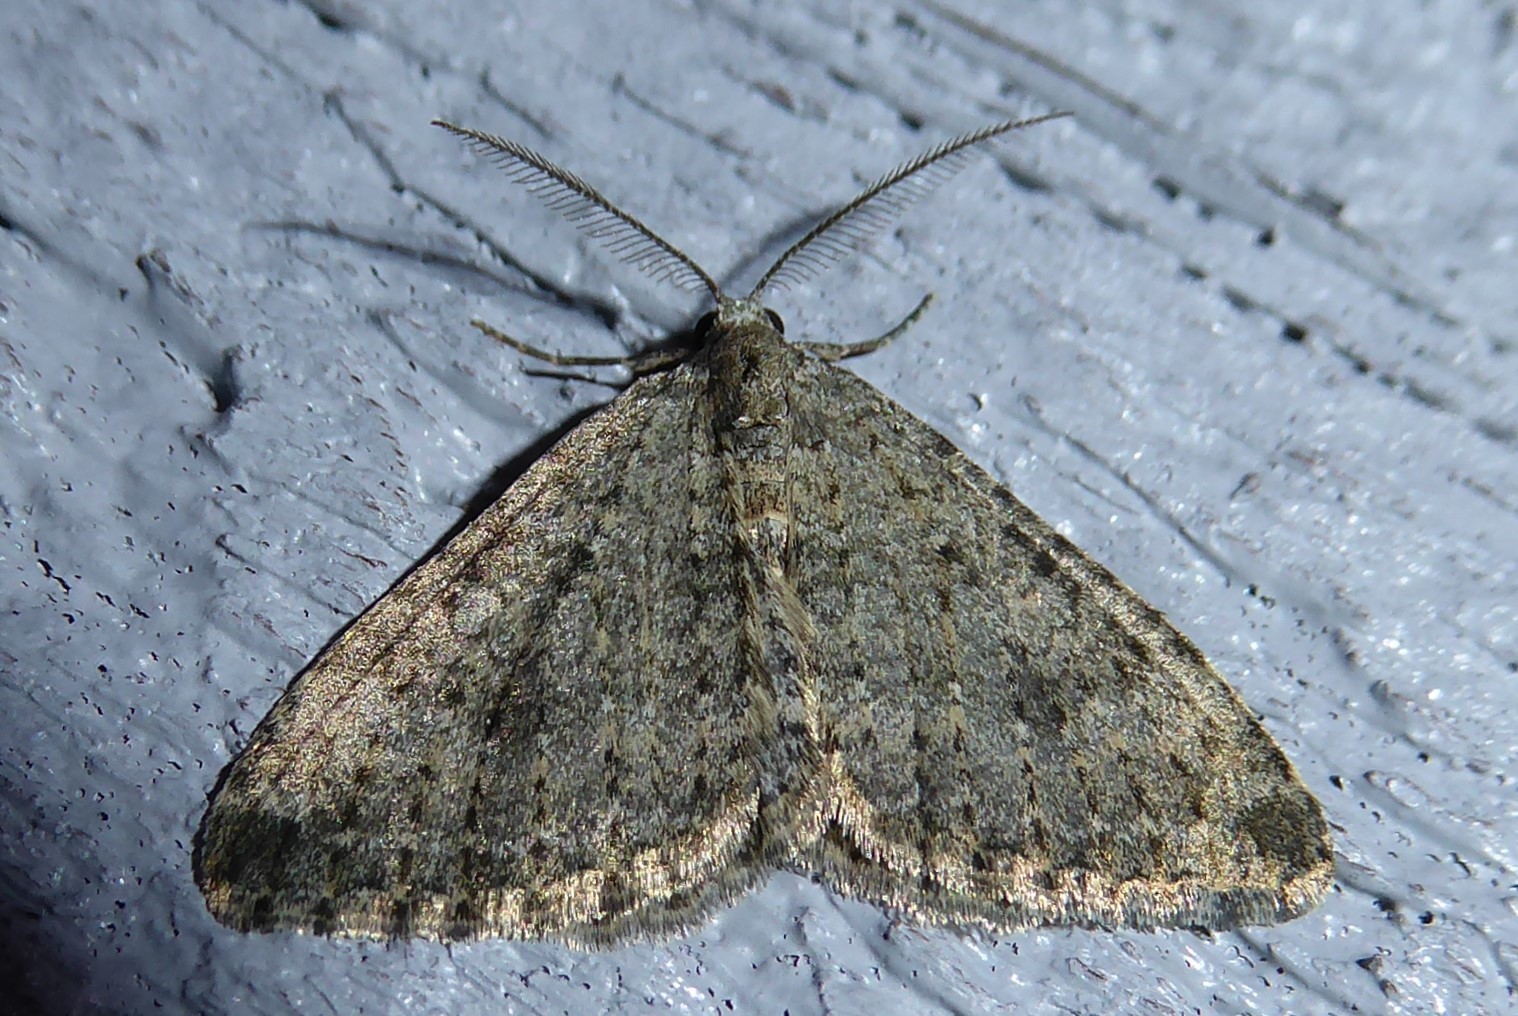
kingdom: Animalia
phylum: Arthropoda
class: Insecta
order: Lepidoptera
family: Geometridae
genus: Helastia
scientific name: Helastia corcularia
